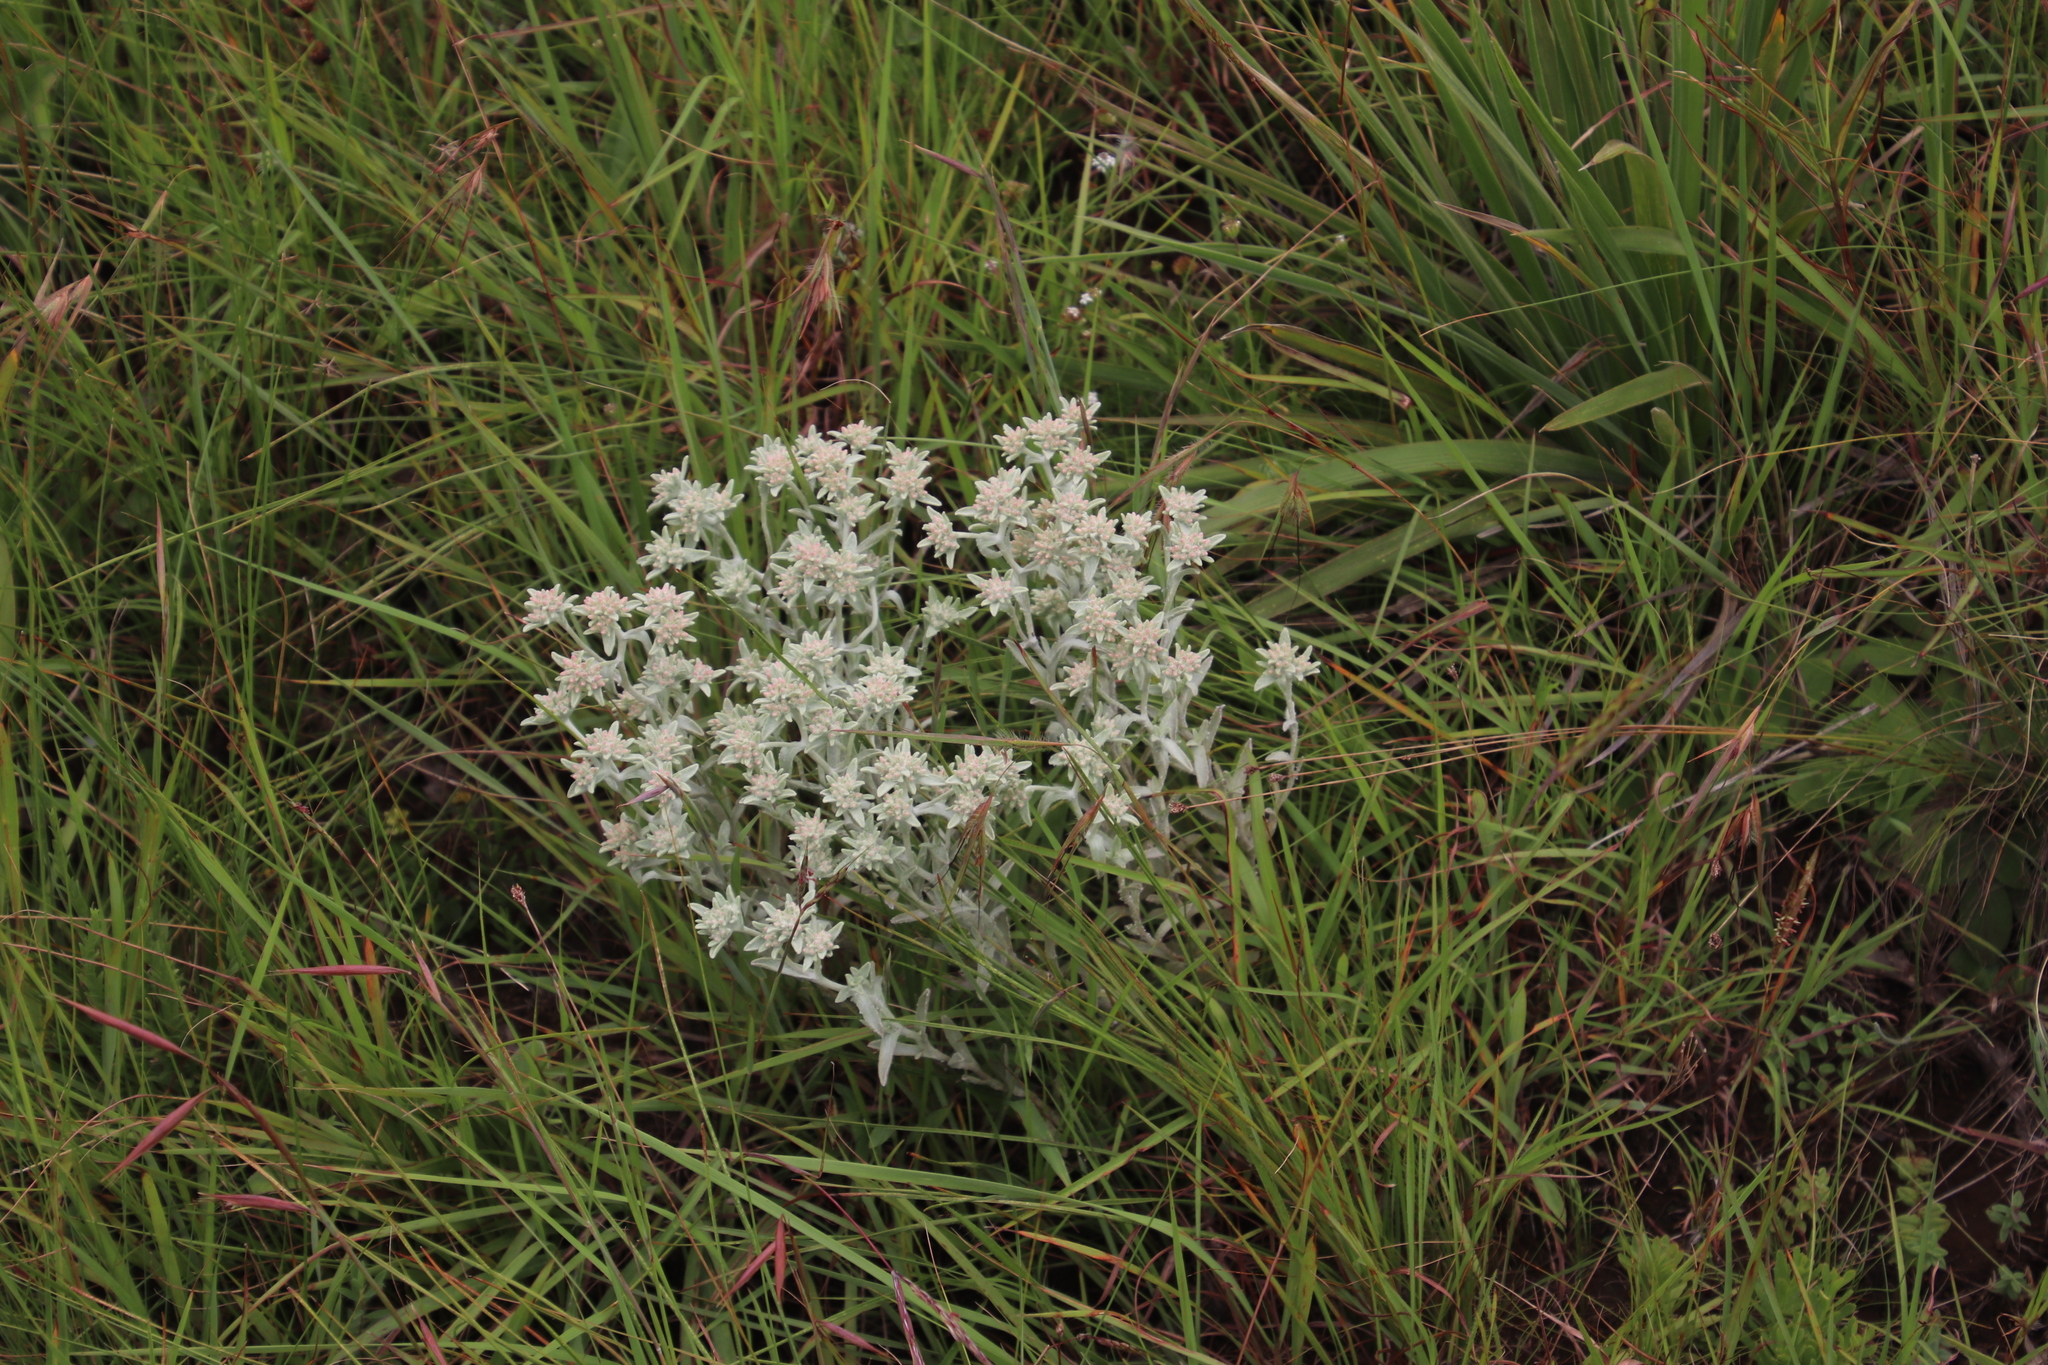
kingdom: Plantae
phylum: Tracheophyta
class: Magnoliopsida
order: Asterales
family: Asteraceae
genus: Helichrysum
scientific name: Helichrysum spiralepis
